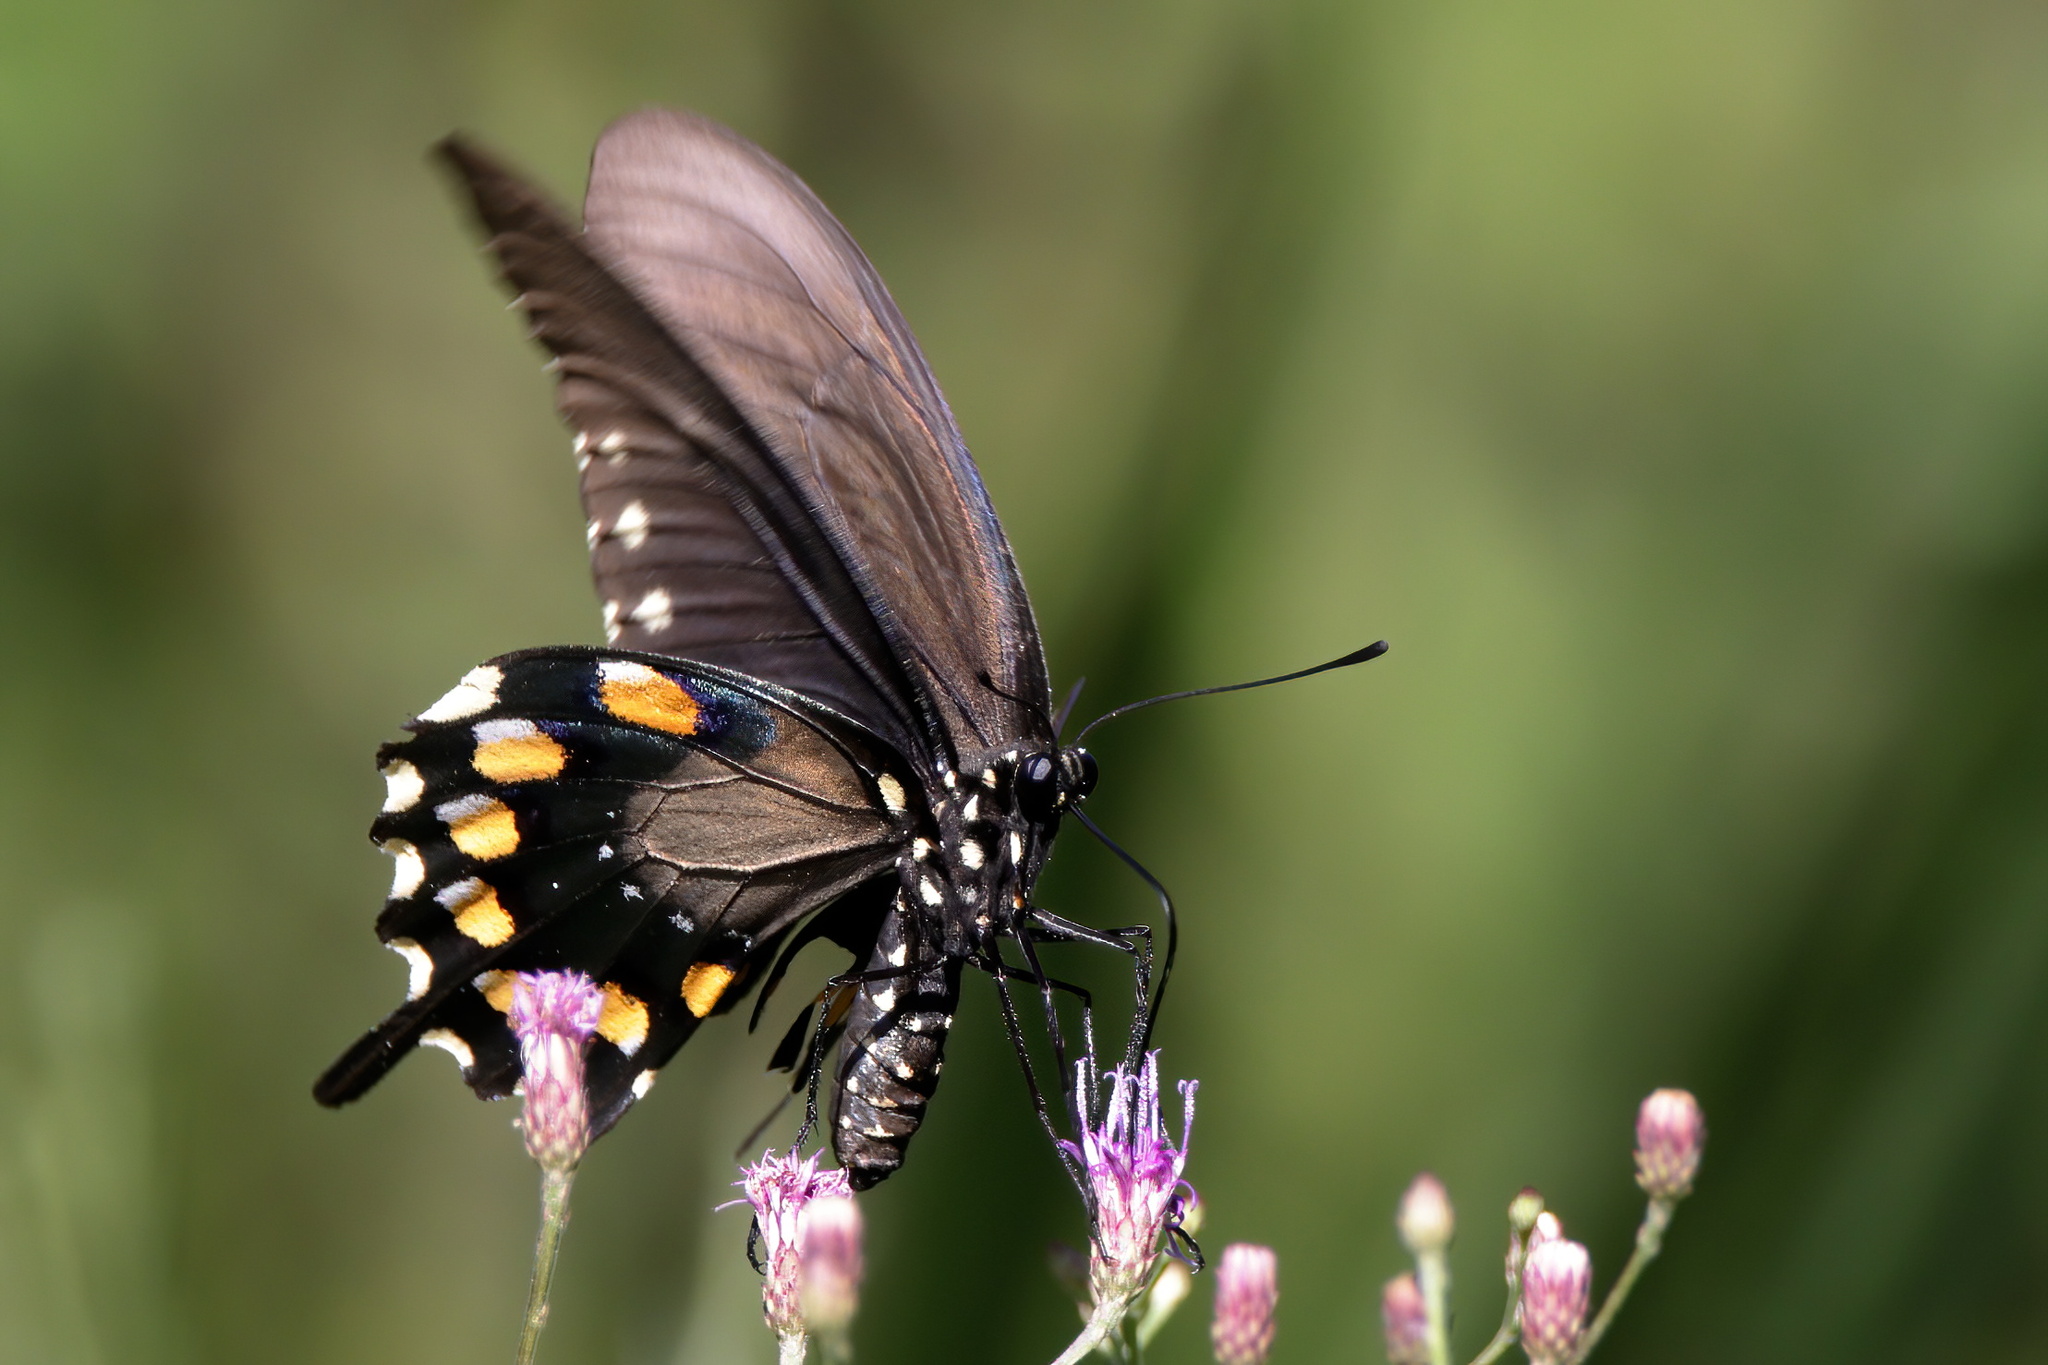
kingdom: Animalia
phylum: Arthropoda
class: Insecta
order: Lepidoptera
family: Papilionidae
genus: Battus
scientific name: Battus philenor
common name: Pipevine swallowtail
